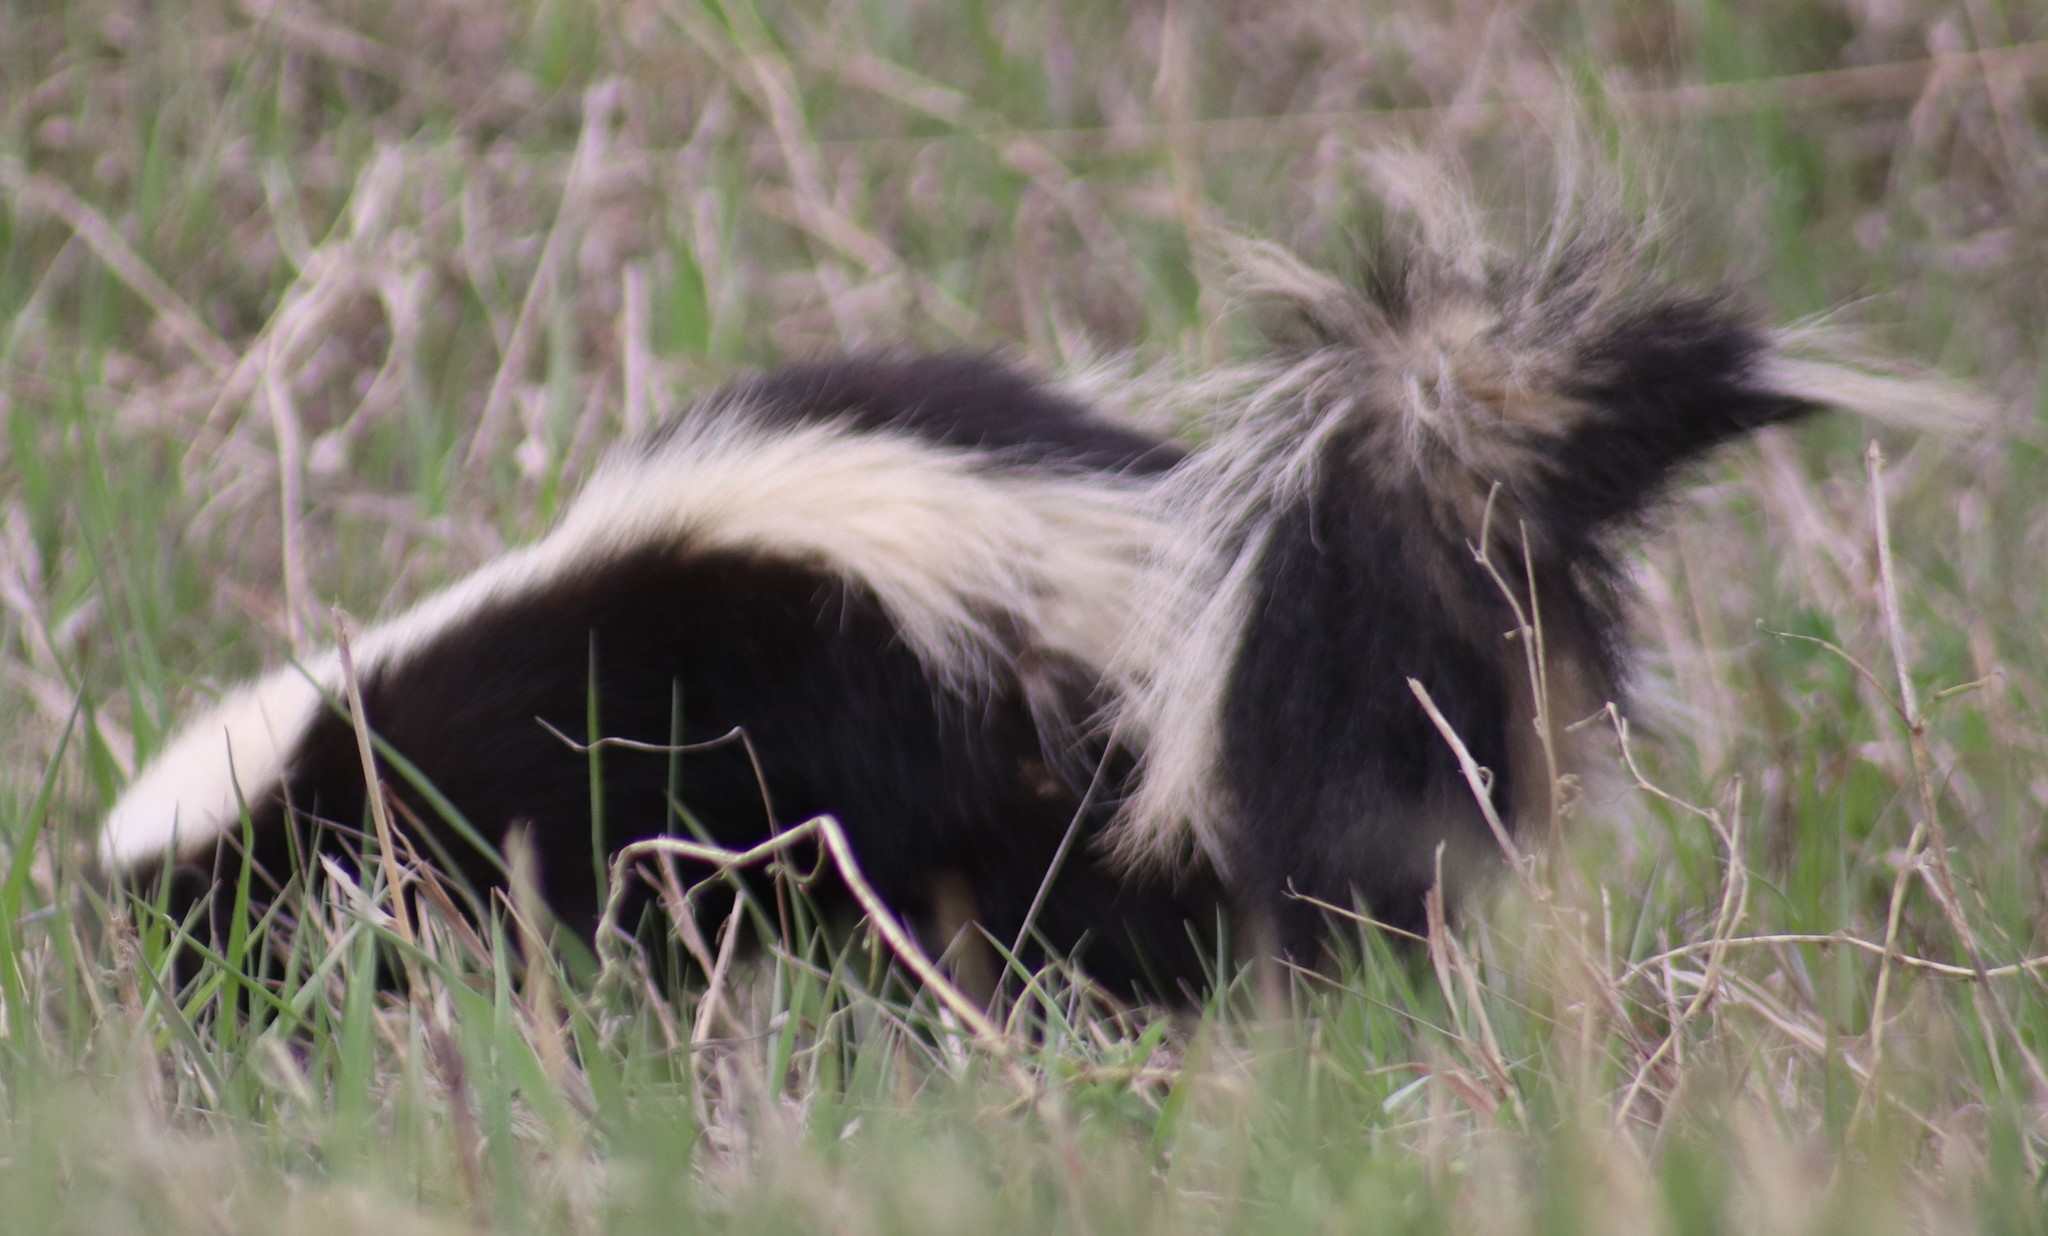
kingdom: Animalia
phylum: Chordata
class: Mammalia
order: Carnivora
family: Mephitidae
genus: Mephitis
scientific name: Mephitis mephitis
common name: Striped skunk
